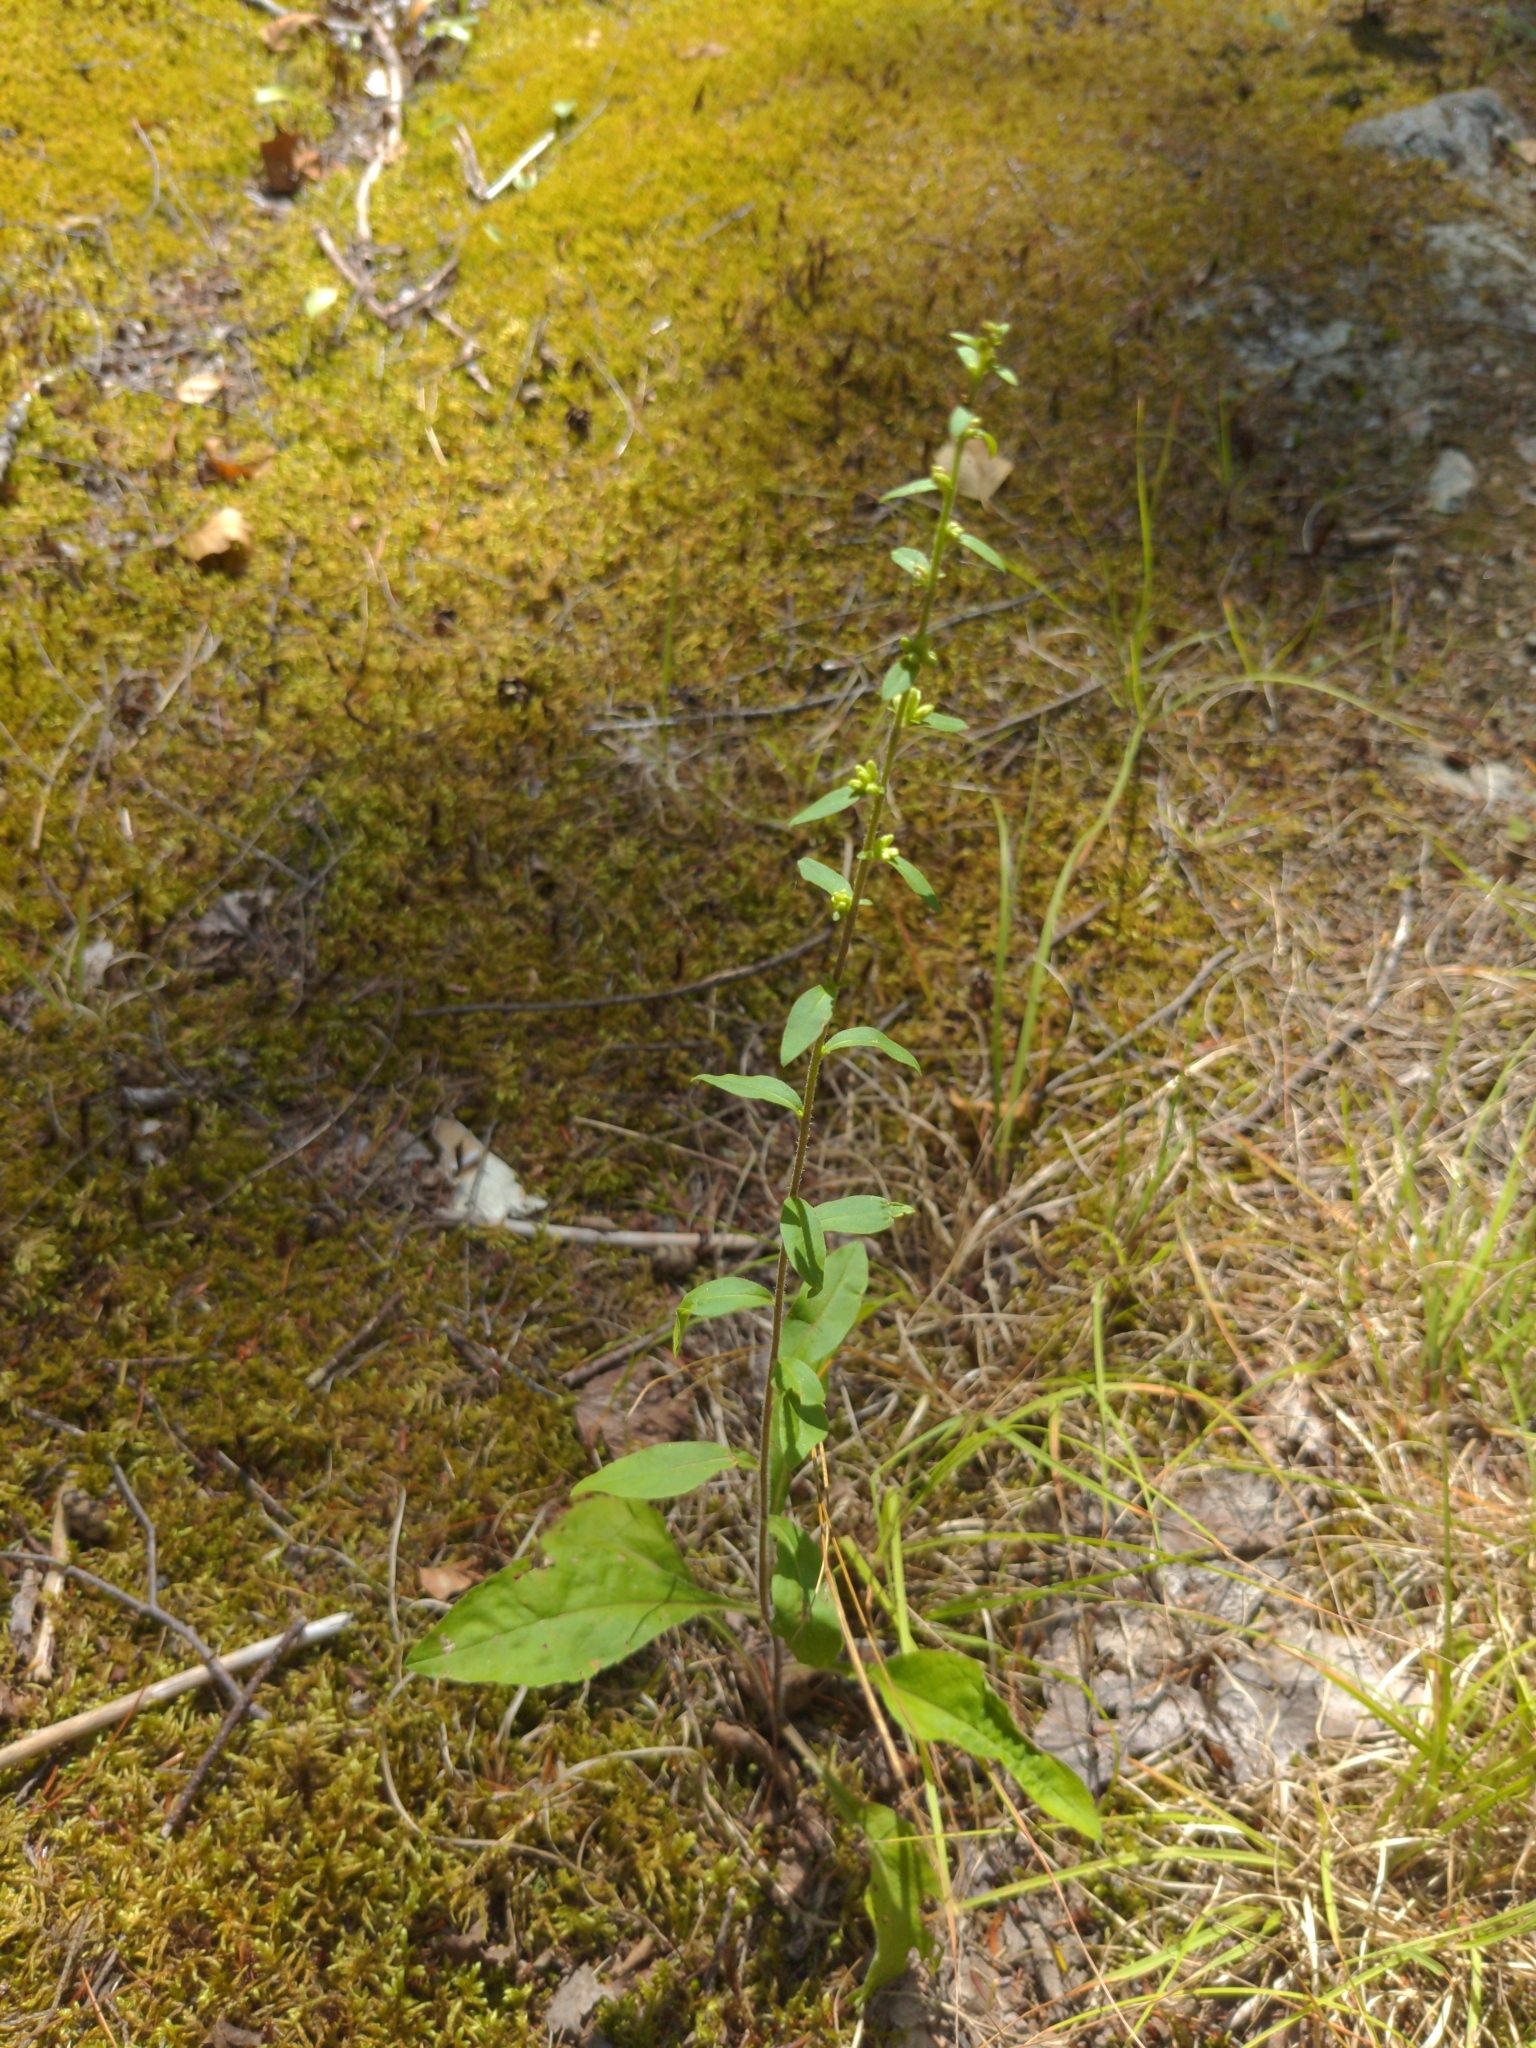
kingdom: Plantae
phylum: Tracheophyta
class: Magnoliopsida
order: Asterales
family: Asteraceae
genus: Solidago
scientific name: Solidago bicolor
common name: Silverrod
